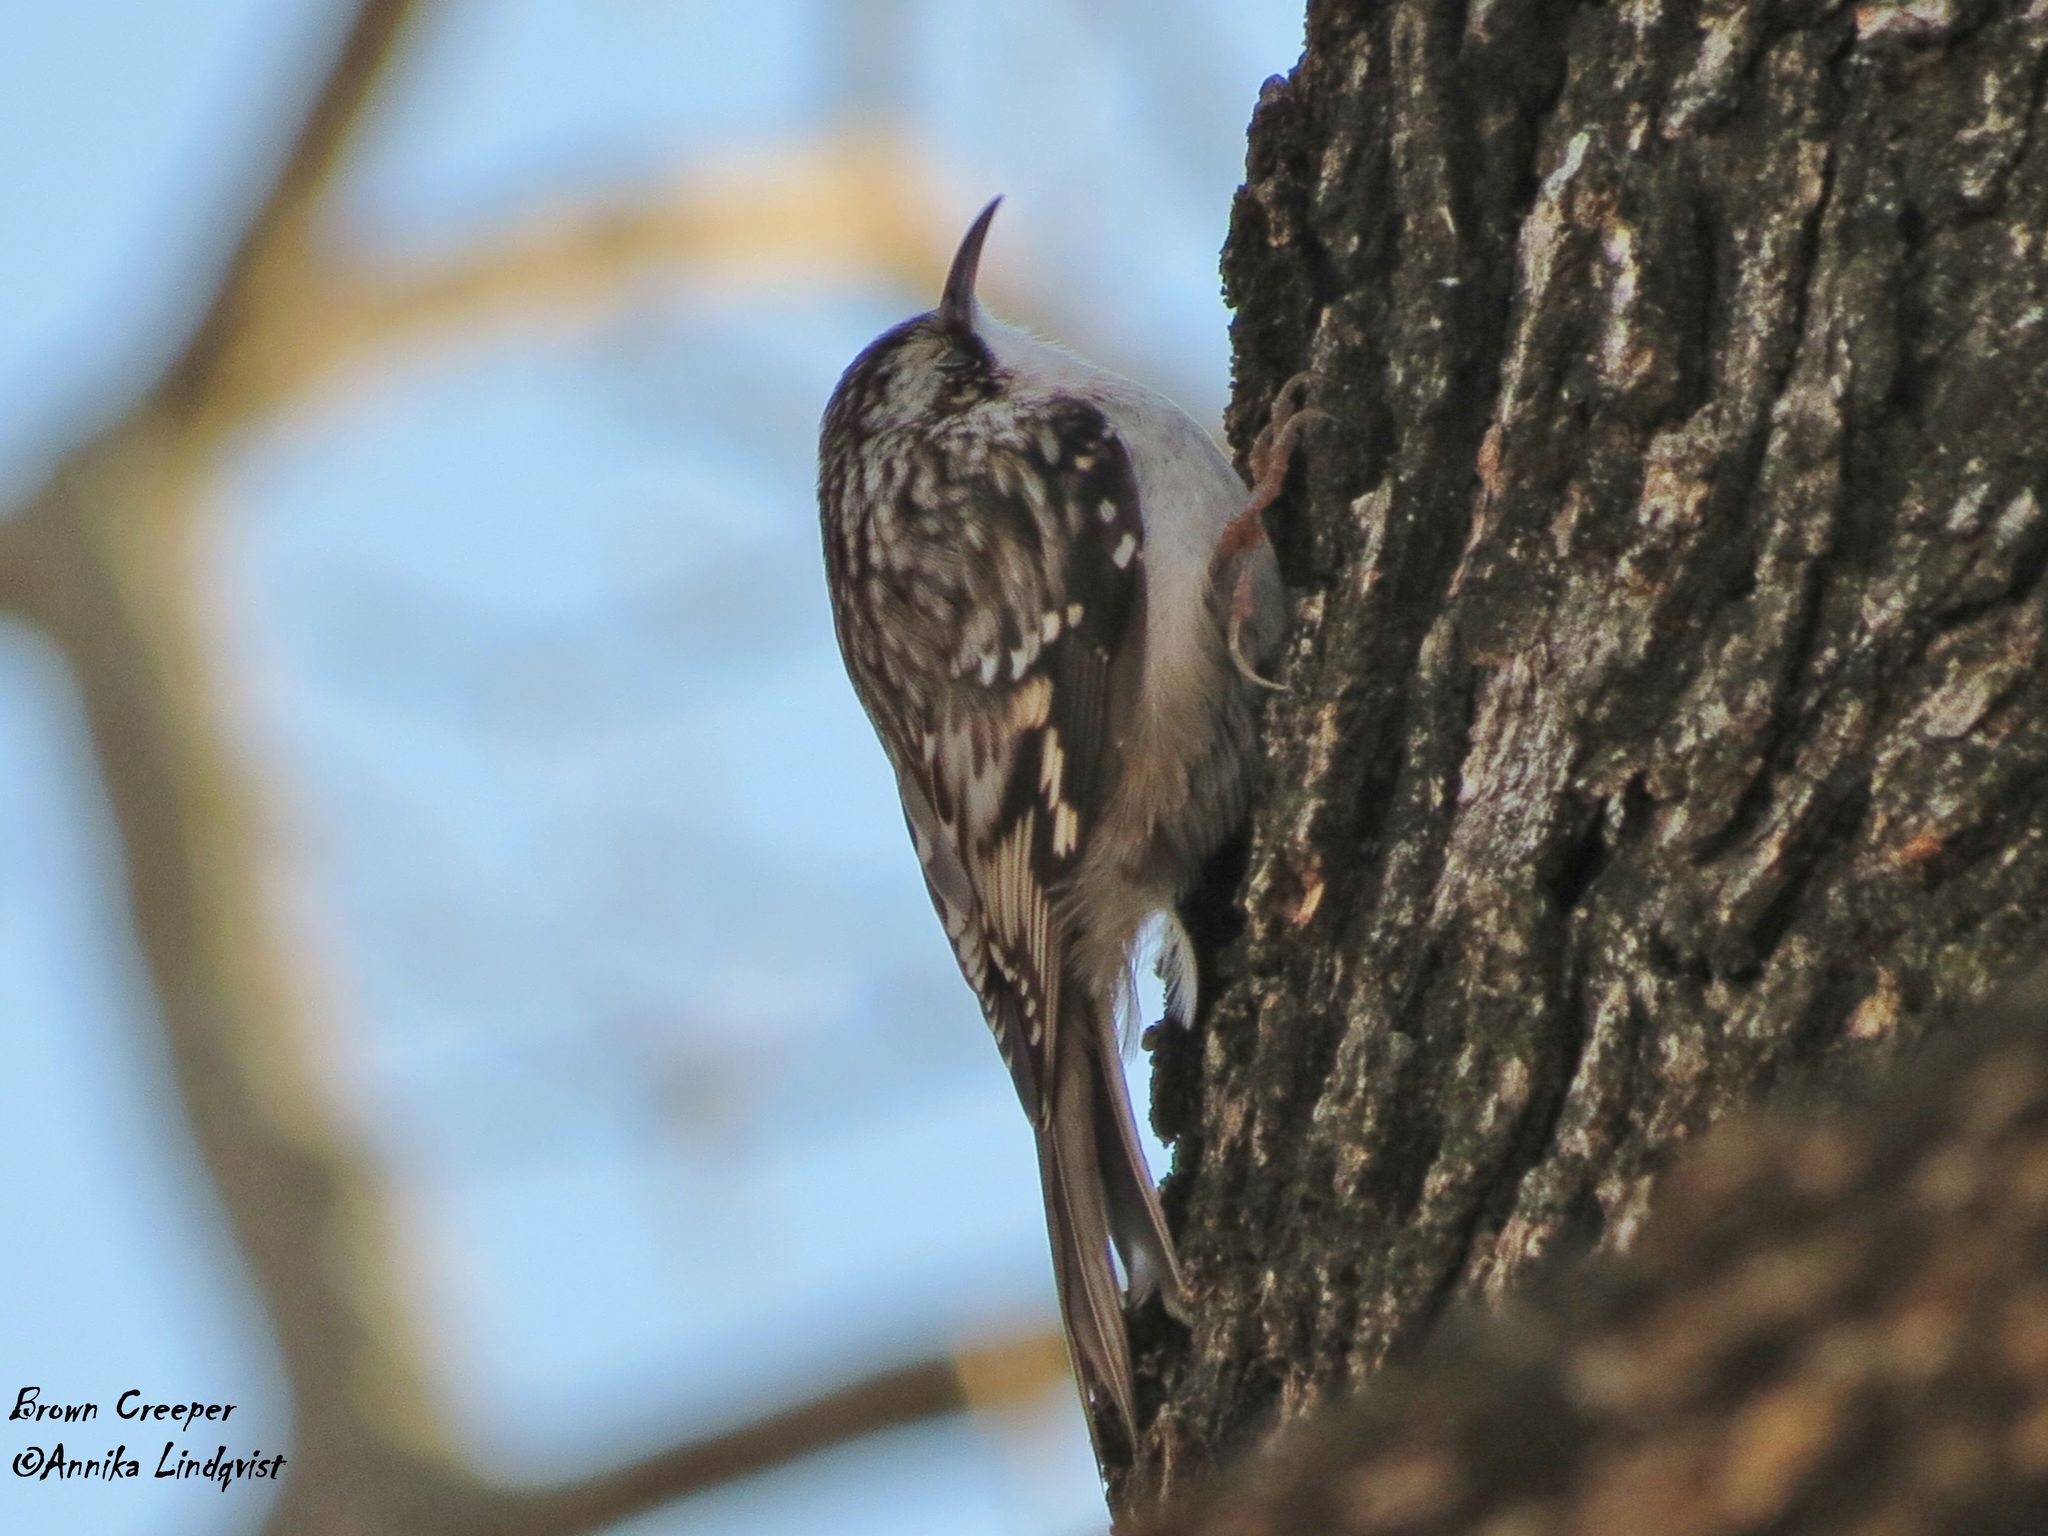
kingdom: Animalia
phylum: Chordata
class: Aves
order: Passeriformes
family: Certhiidae
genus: Certhia
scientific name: Certhia americana
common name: Brown creeper
